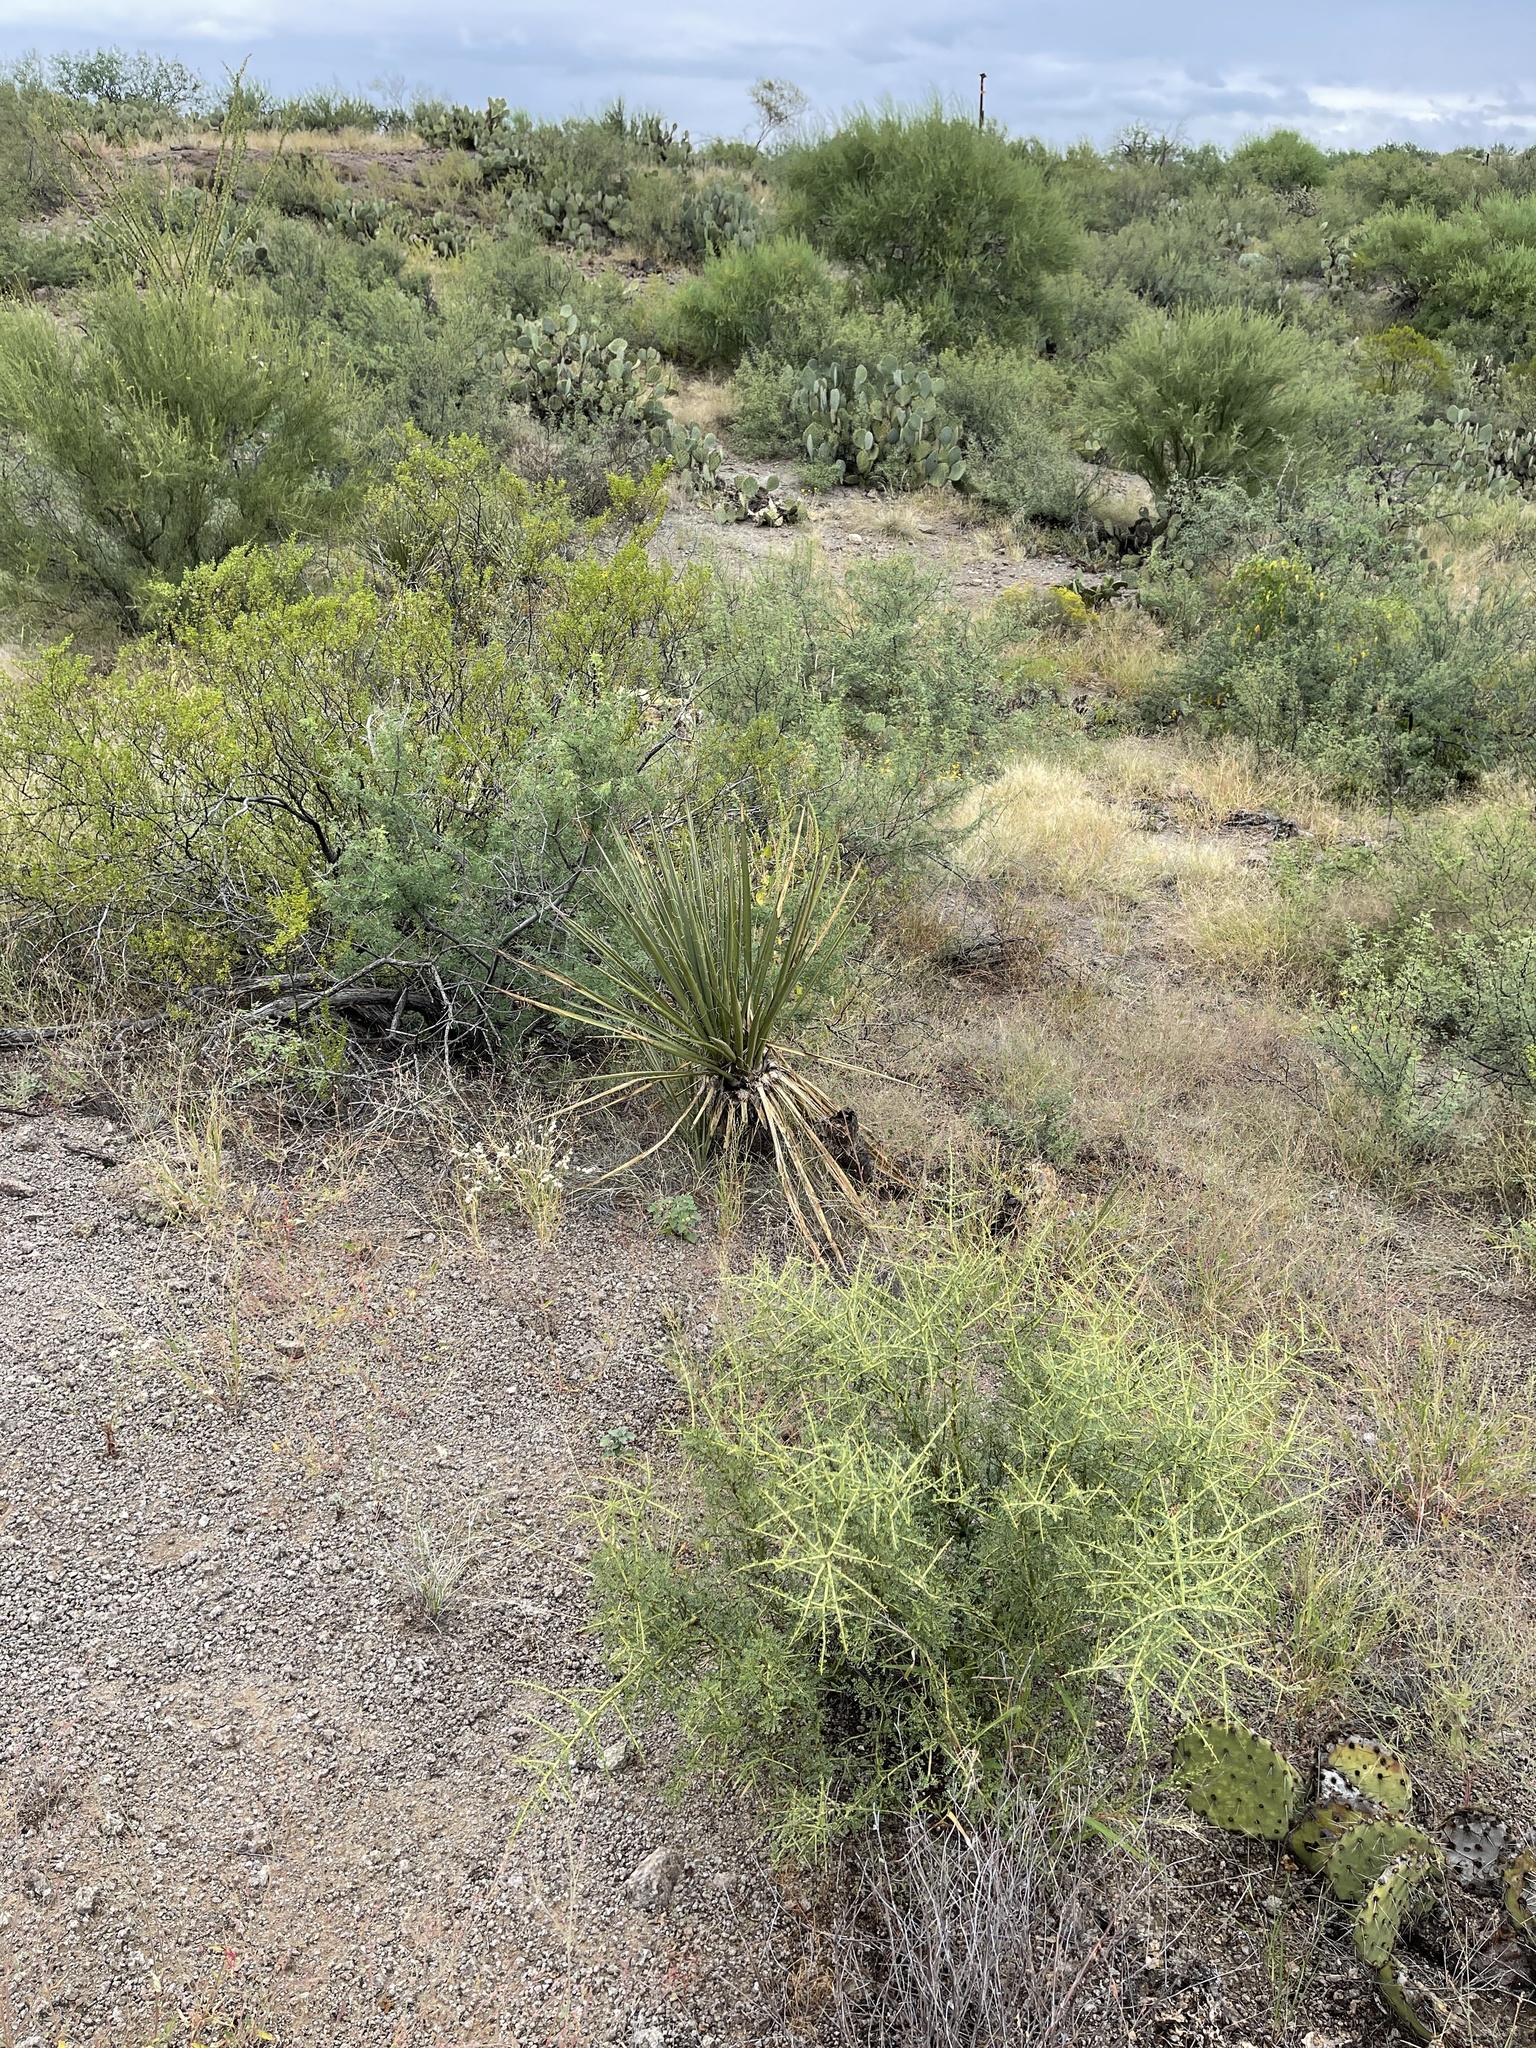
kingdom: Plantae
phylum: Tracheophyta
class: Liliopsida
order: Asparagales
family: Asparagaceae
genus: Yucca
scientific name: Yucca baccata
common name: Banana yucca
